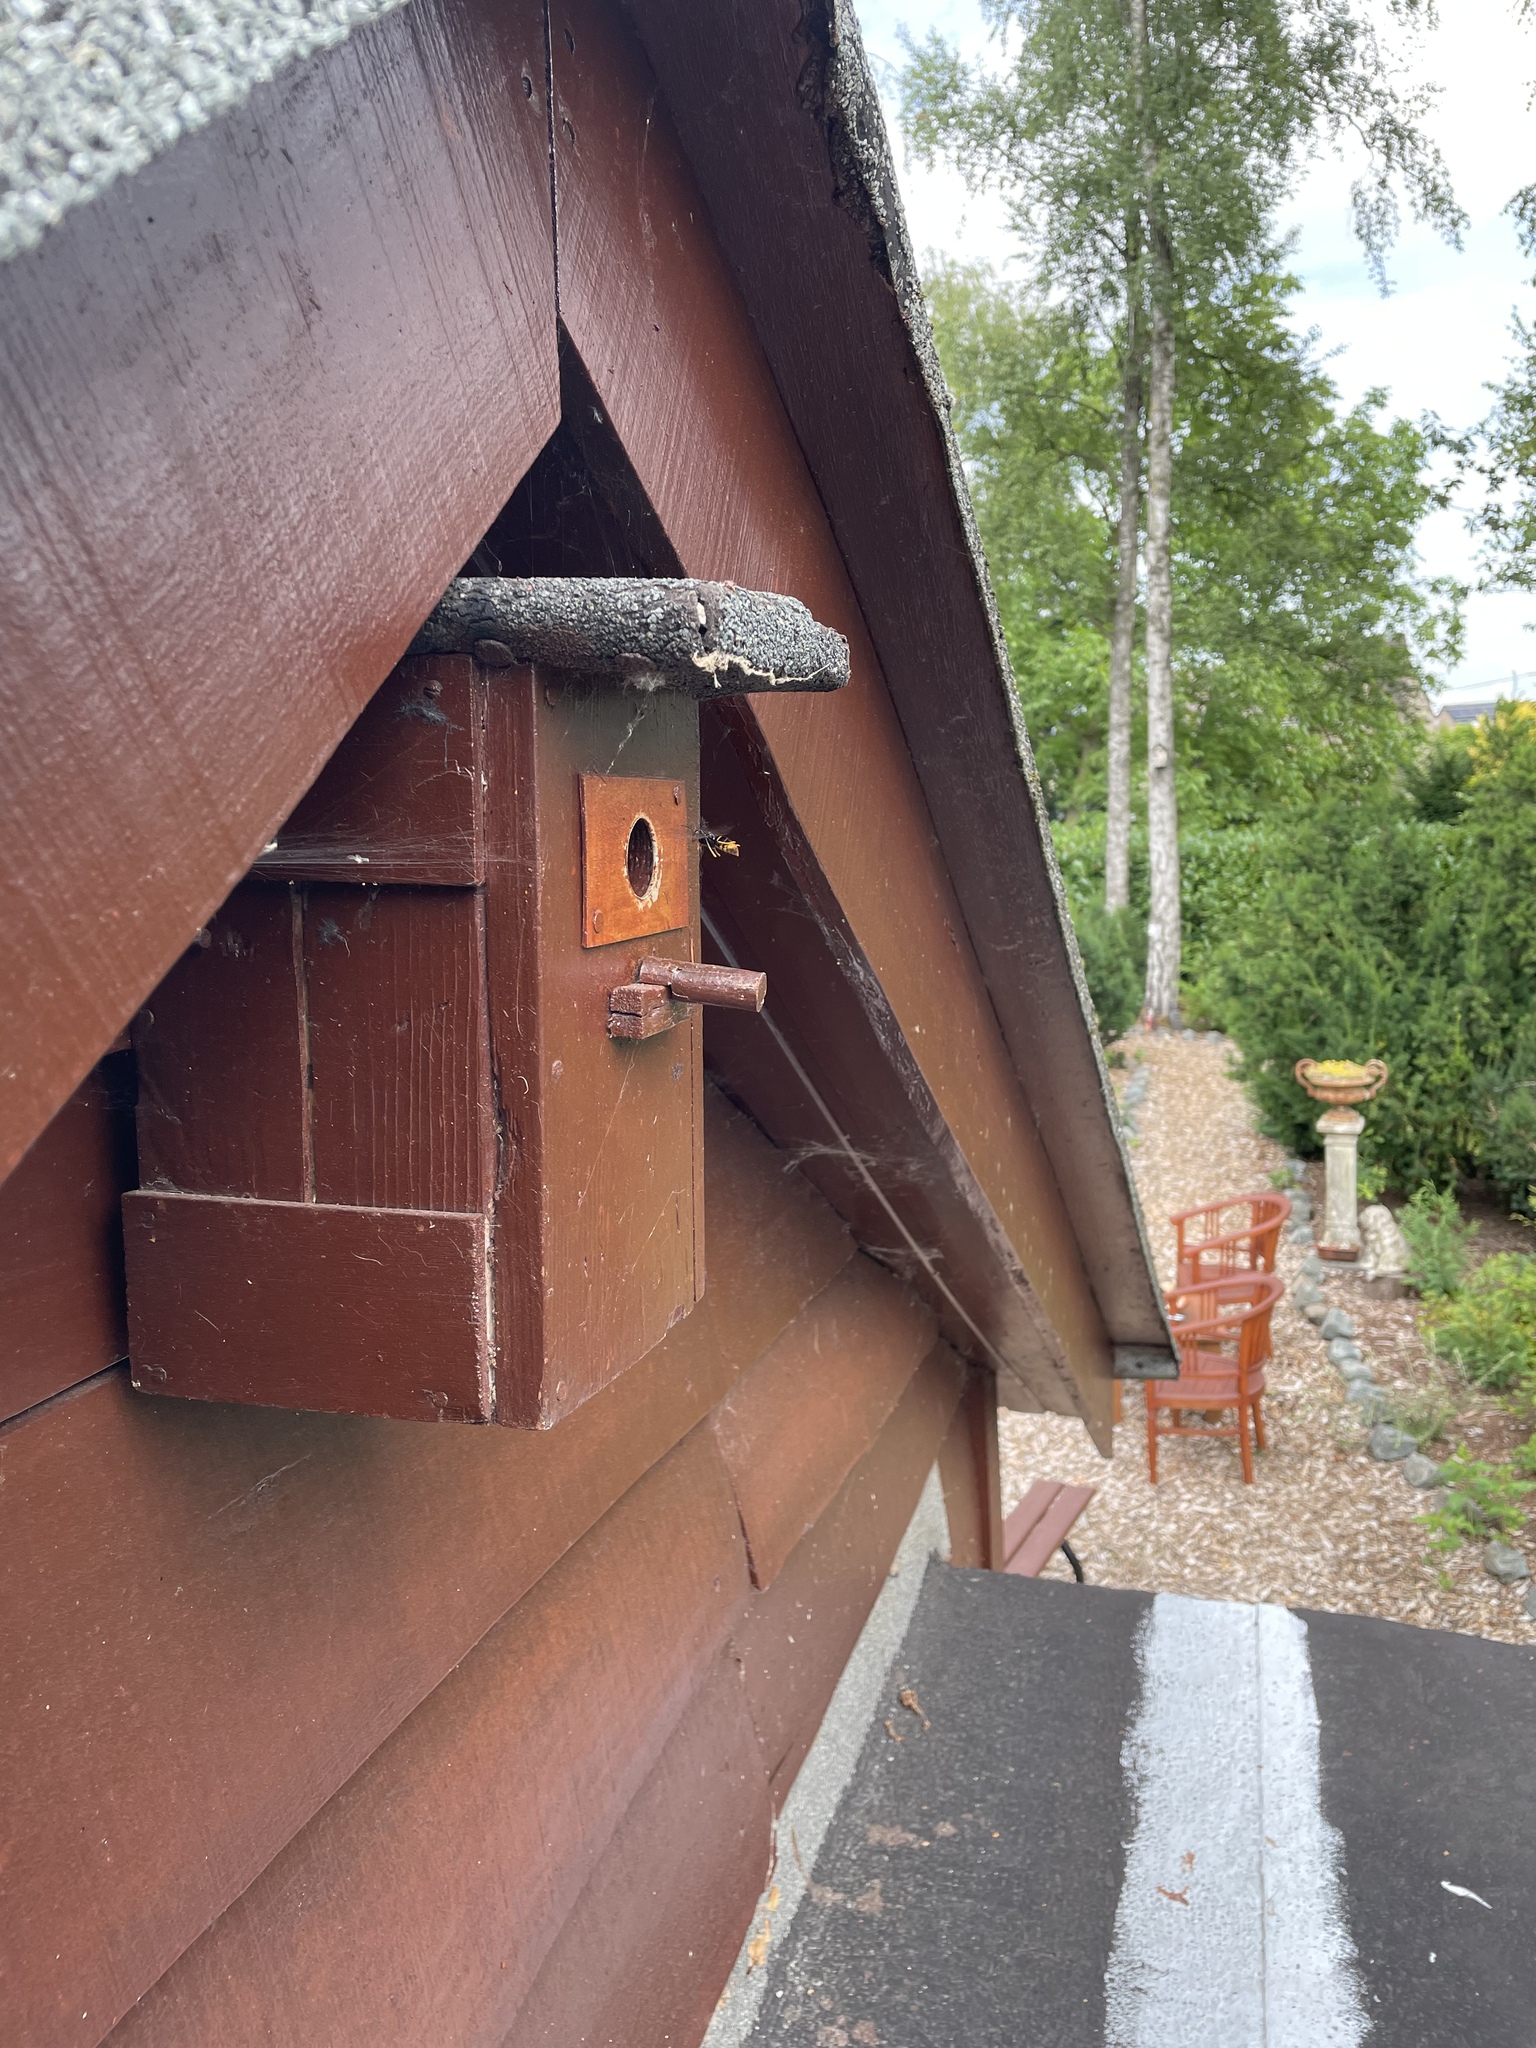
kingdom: Animalia
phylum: Arthropoda
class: Insecta
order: Hymenoptera
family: Vespidae
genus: Vespa
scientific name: Vespa velutina
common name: Asian hornet
